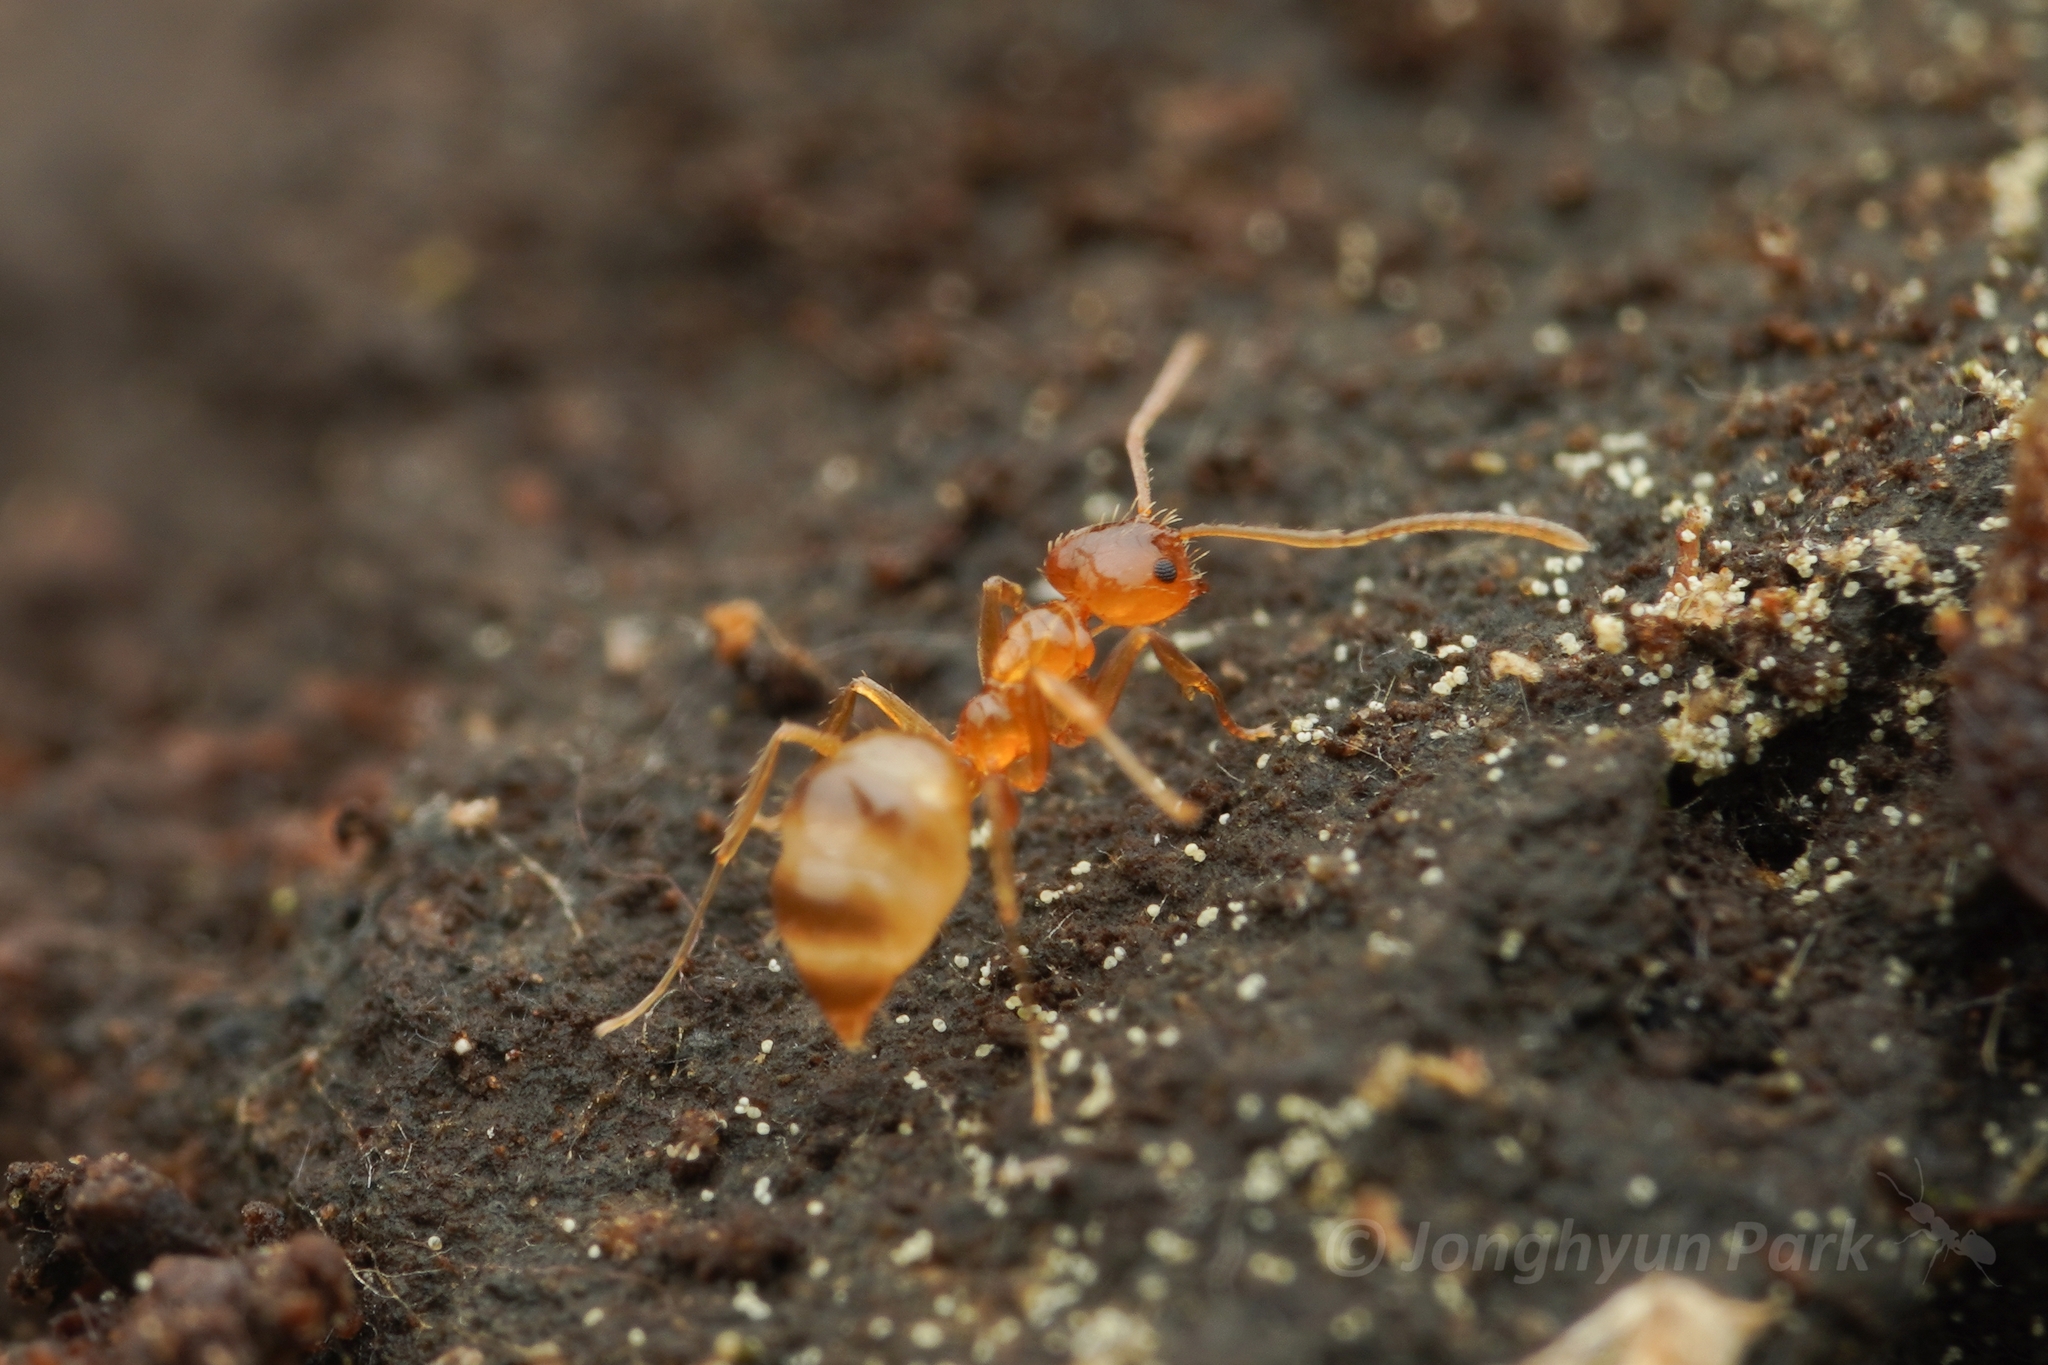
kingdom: Animalia
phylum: Arthropoda
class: Insecta
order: Hymenoptera
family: Formicidae
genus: Paratrechina
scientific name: Paratrechina flavipes
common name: Eastern asian formicine ant
